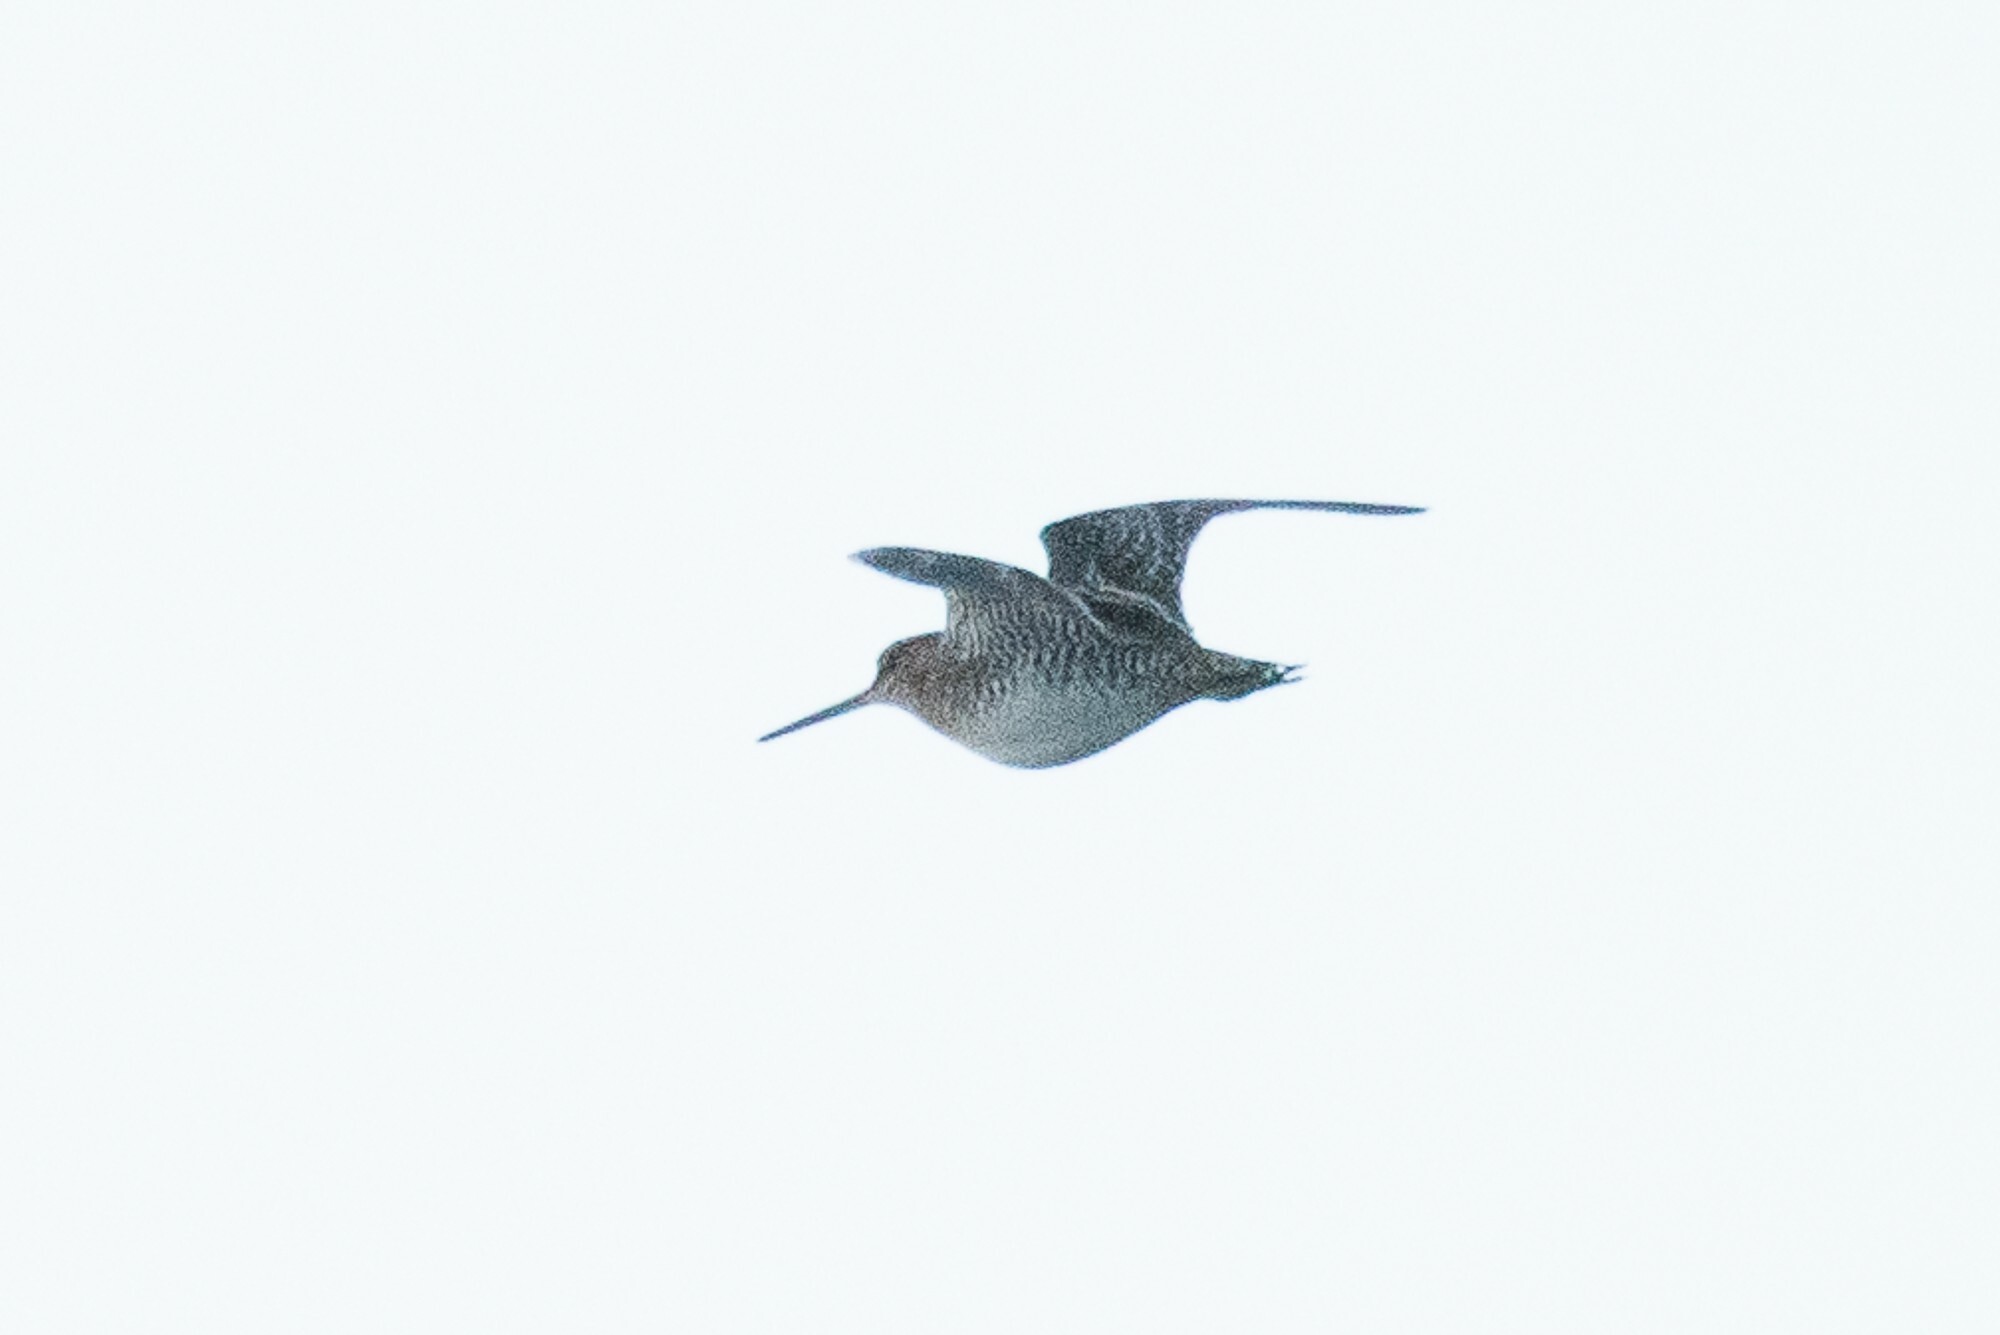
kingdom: Animalia
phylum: Chordata
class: Aves
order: Charadriiformes
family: Scolopacidae
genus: Gallinago
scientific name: Gallinago delicata
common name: Wilson's snipe
